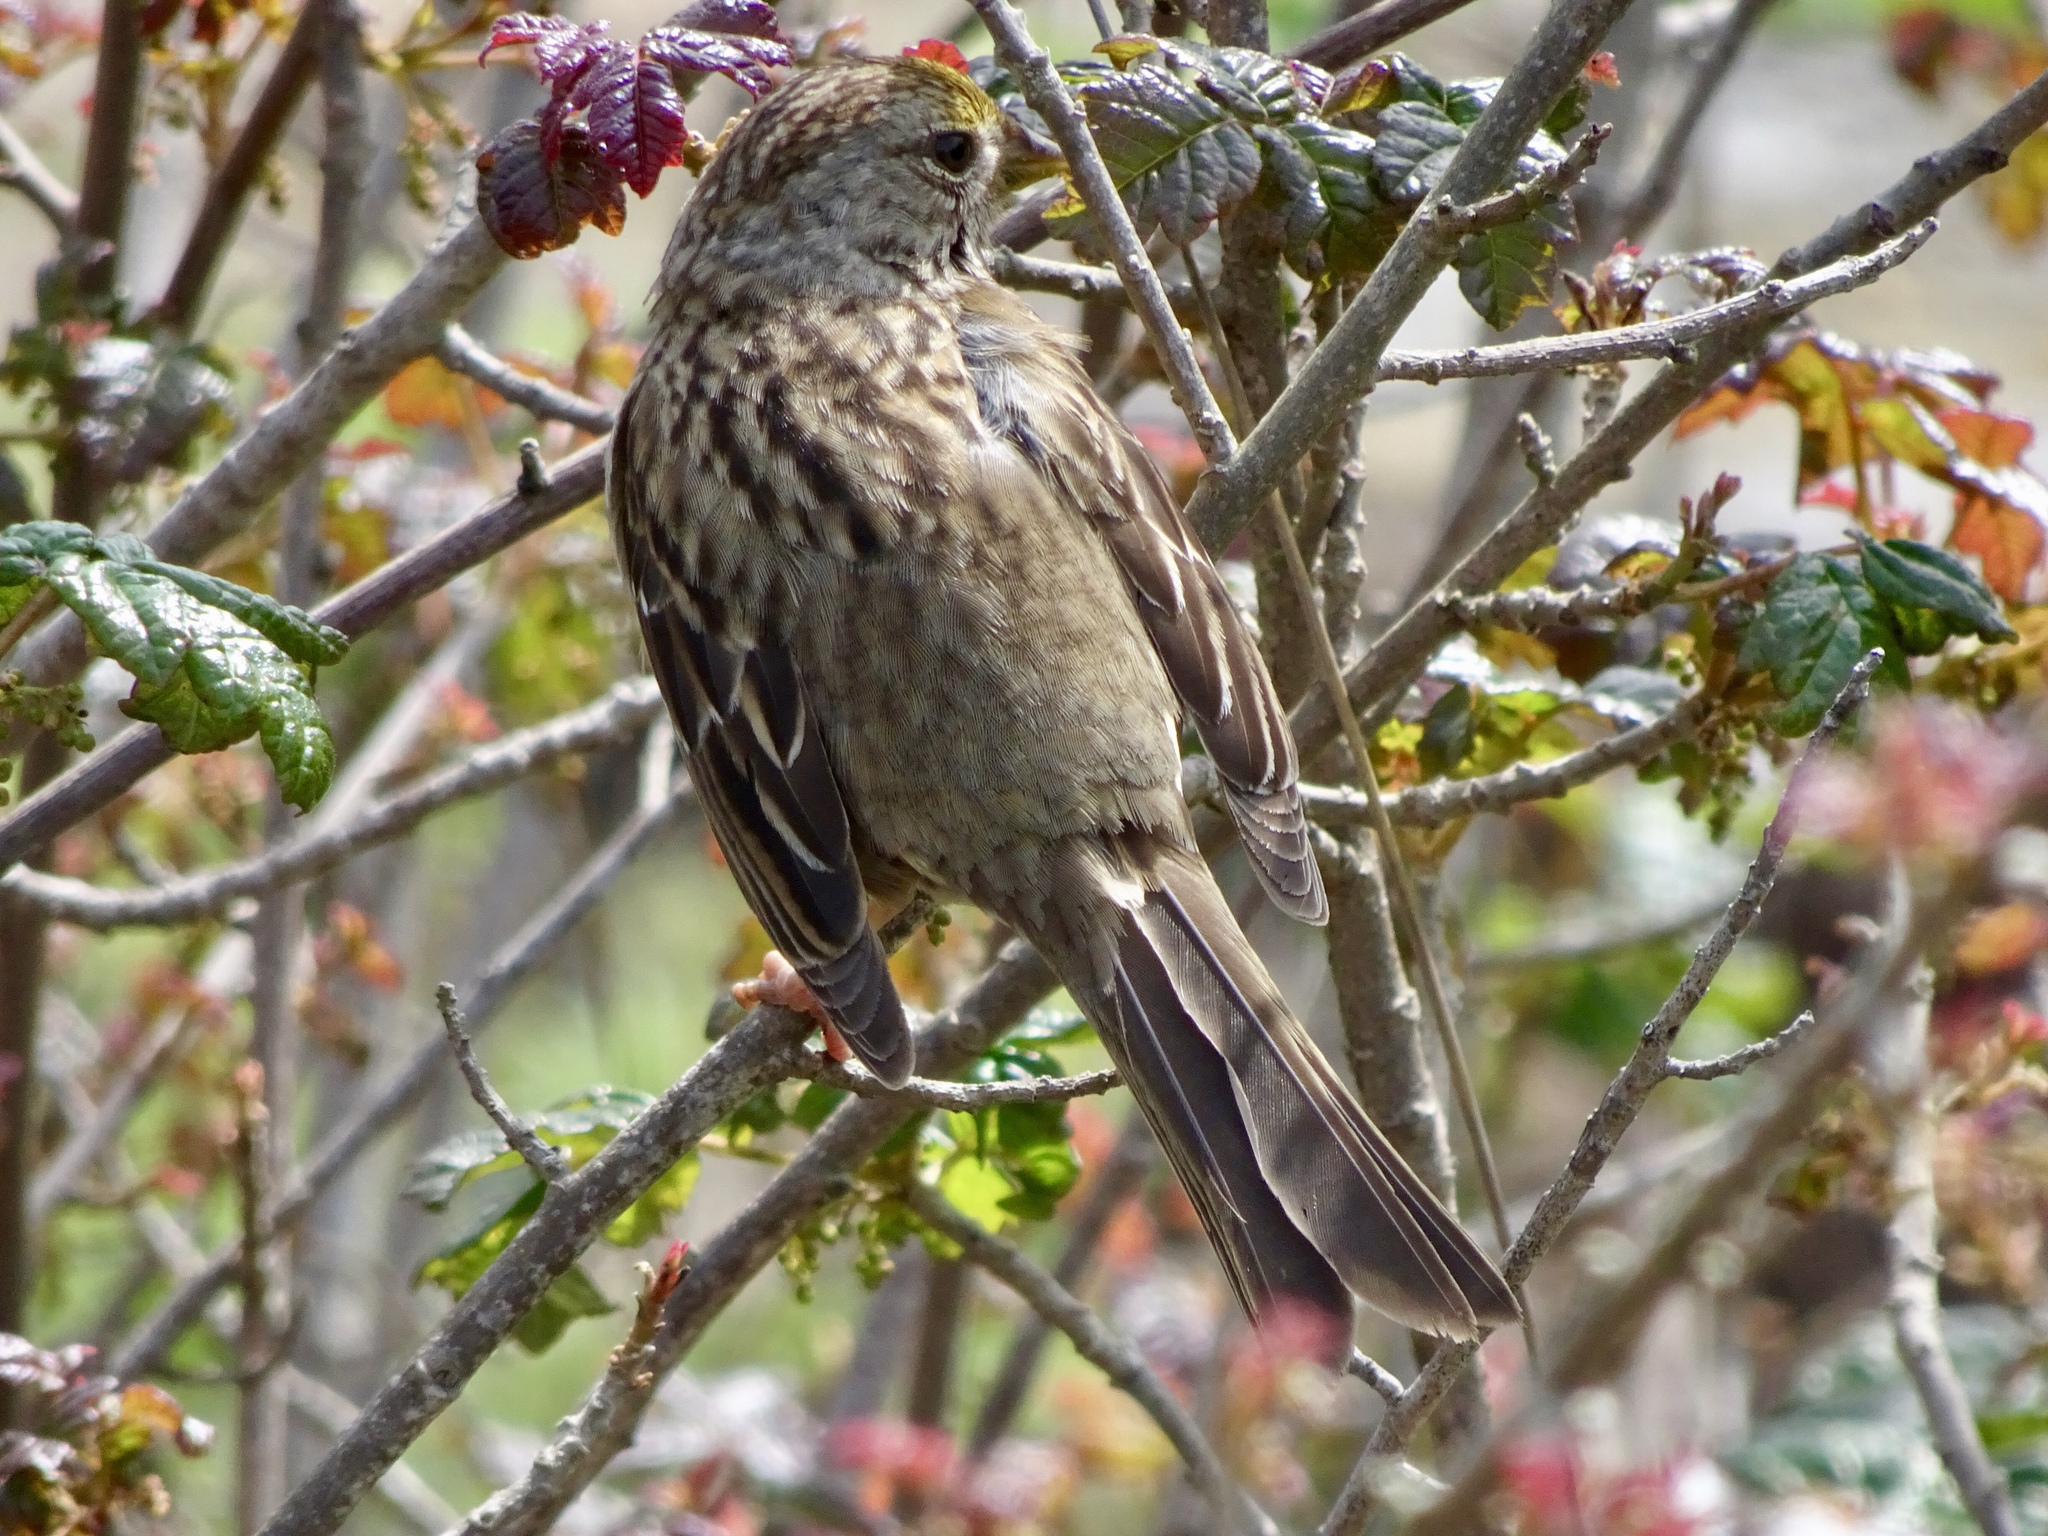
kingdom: Animalia
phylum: Chordata
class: Aves
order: Passeriformes
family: Passerellidae
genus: Zonotrichia
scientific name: Zonotrichia atricapilla
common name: Golden-crowned sparrow
